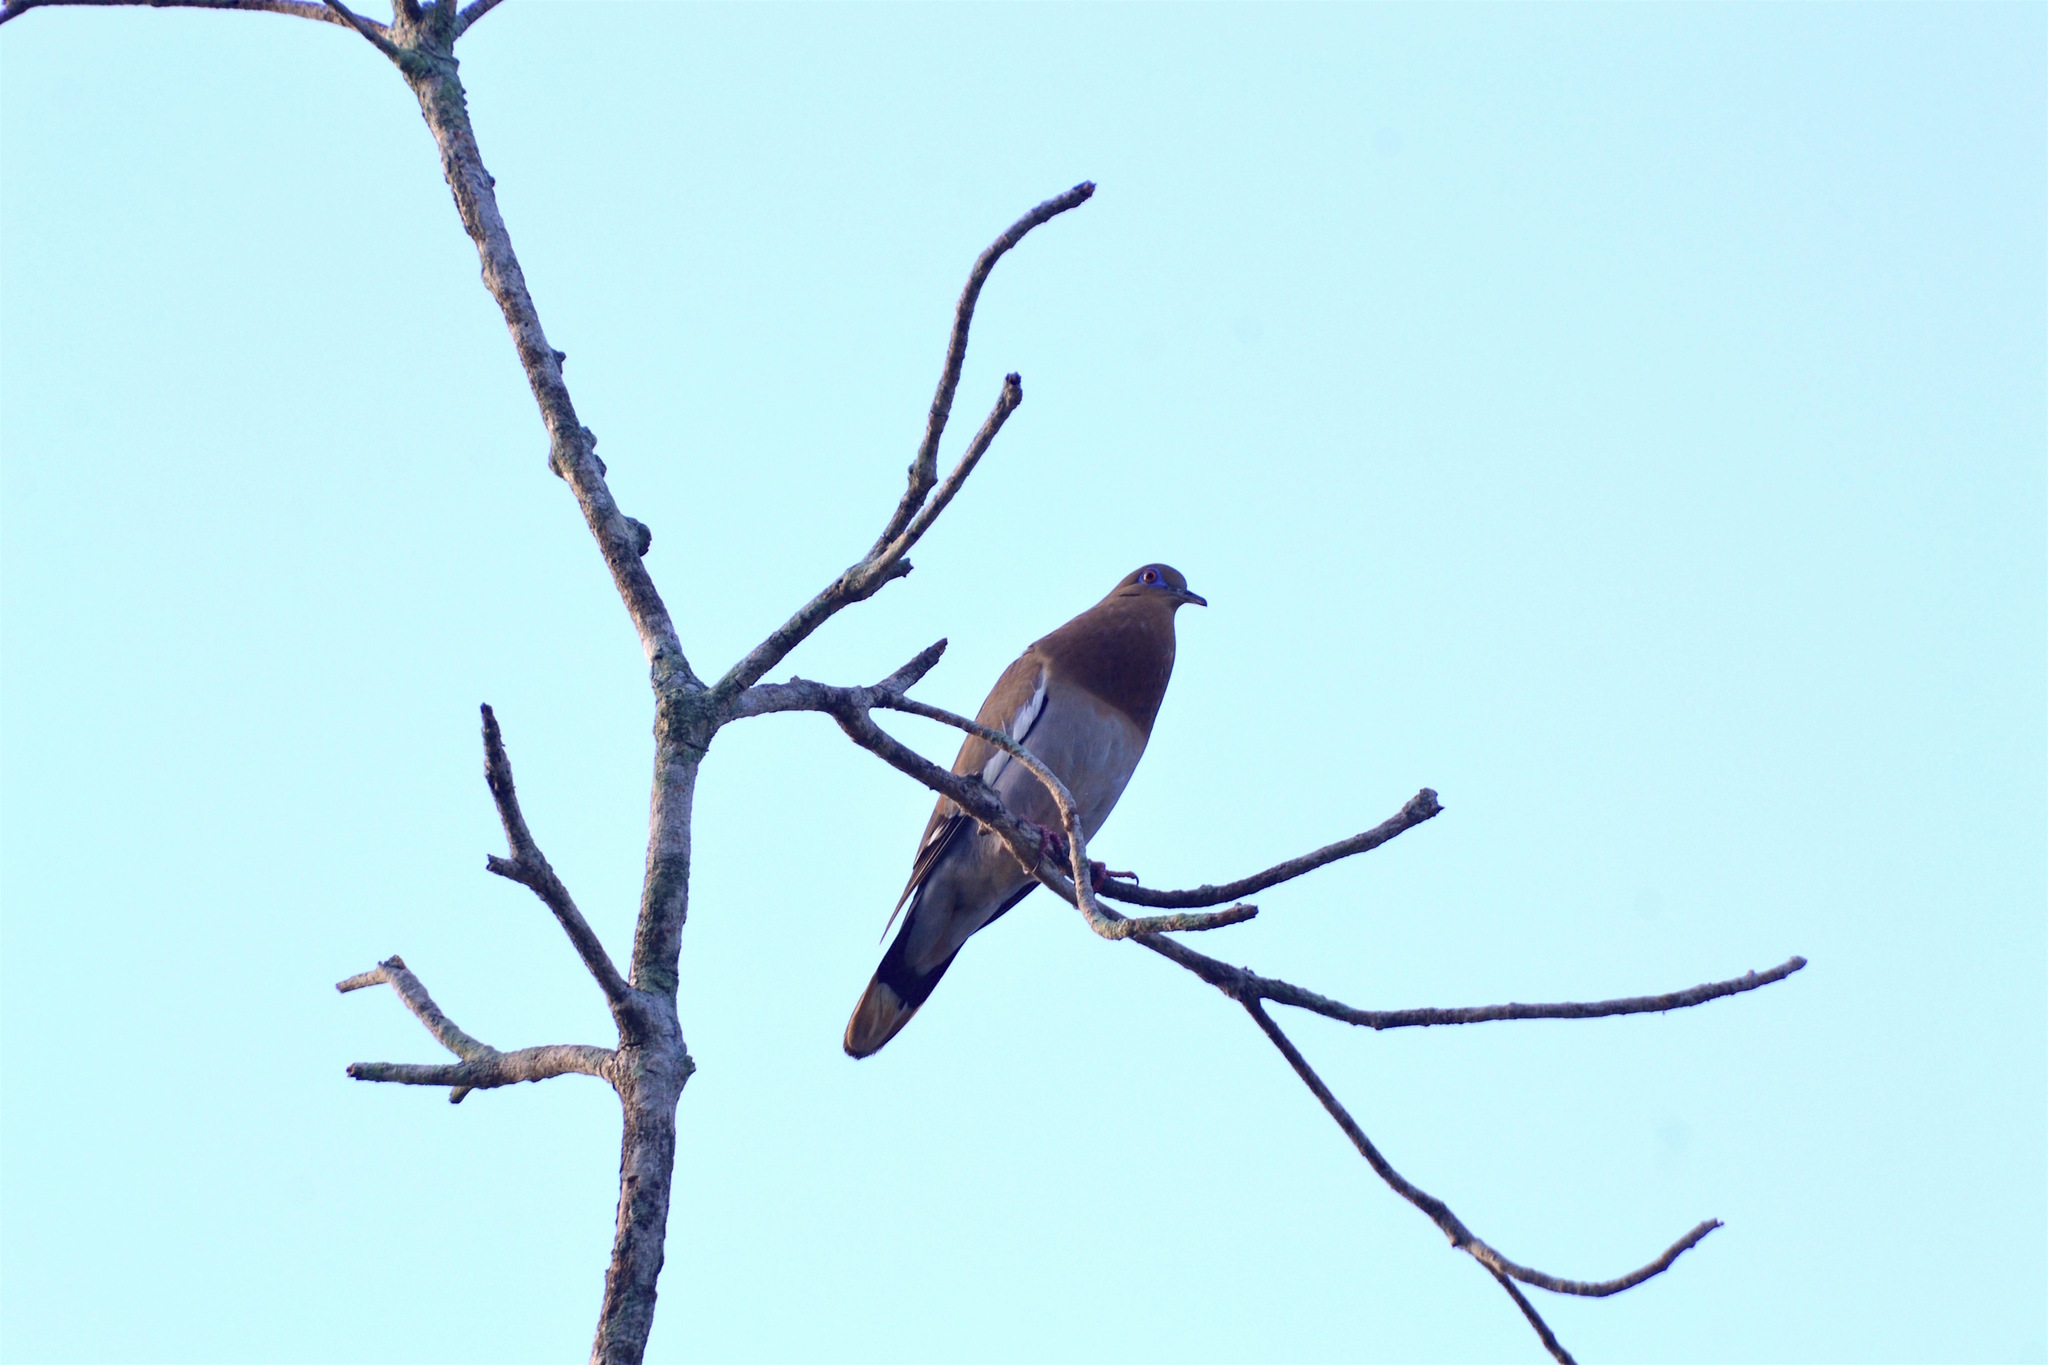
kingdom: Animalia
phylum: Chordata
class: Aves
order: Columbiformes
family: Columbidae
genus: Zenaida
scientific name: Zenaida asiatica
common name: White-winged dove
